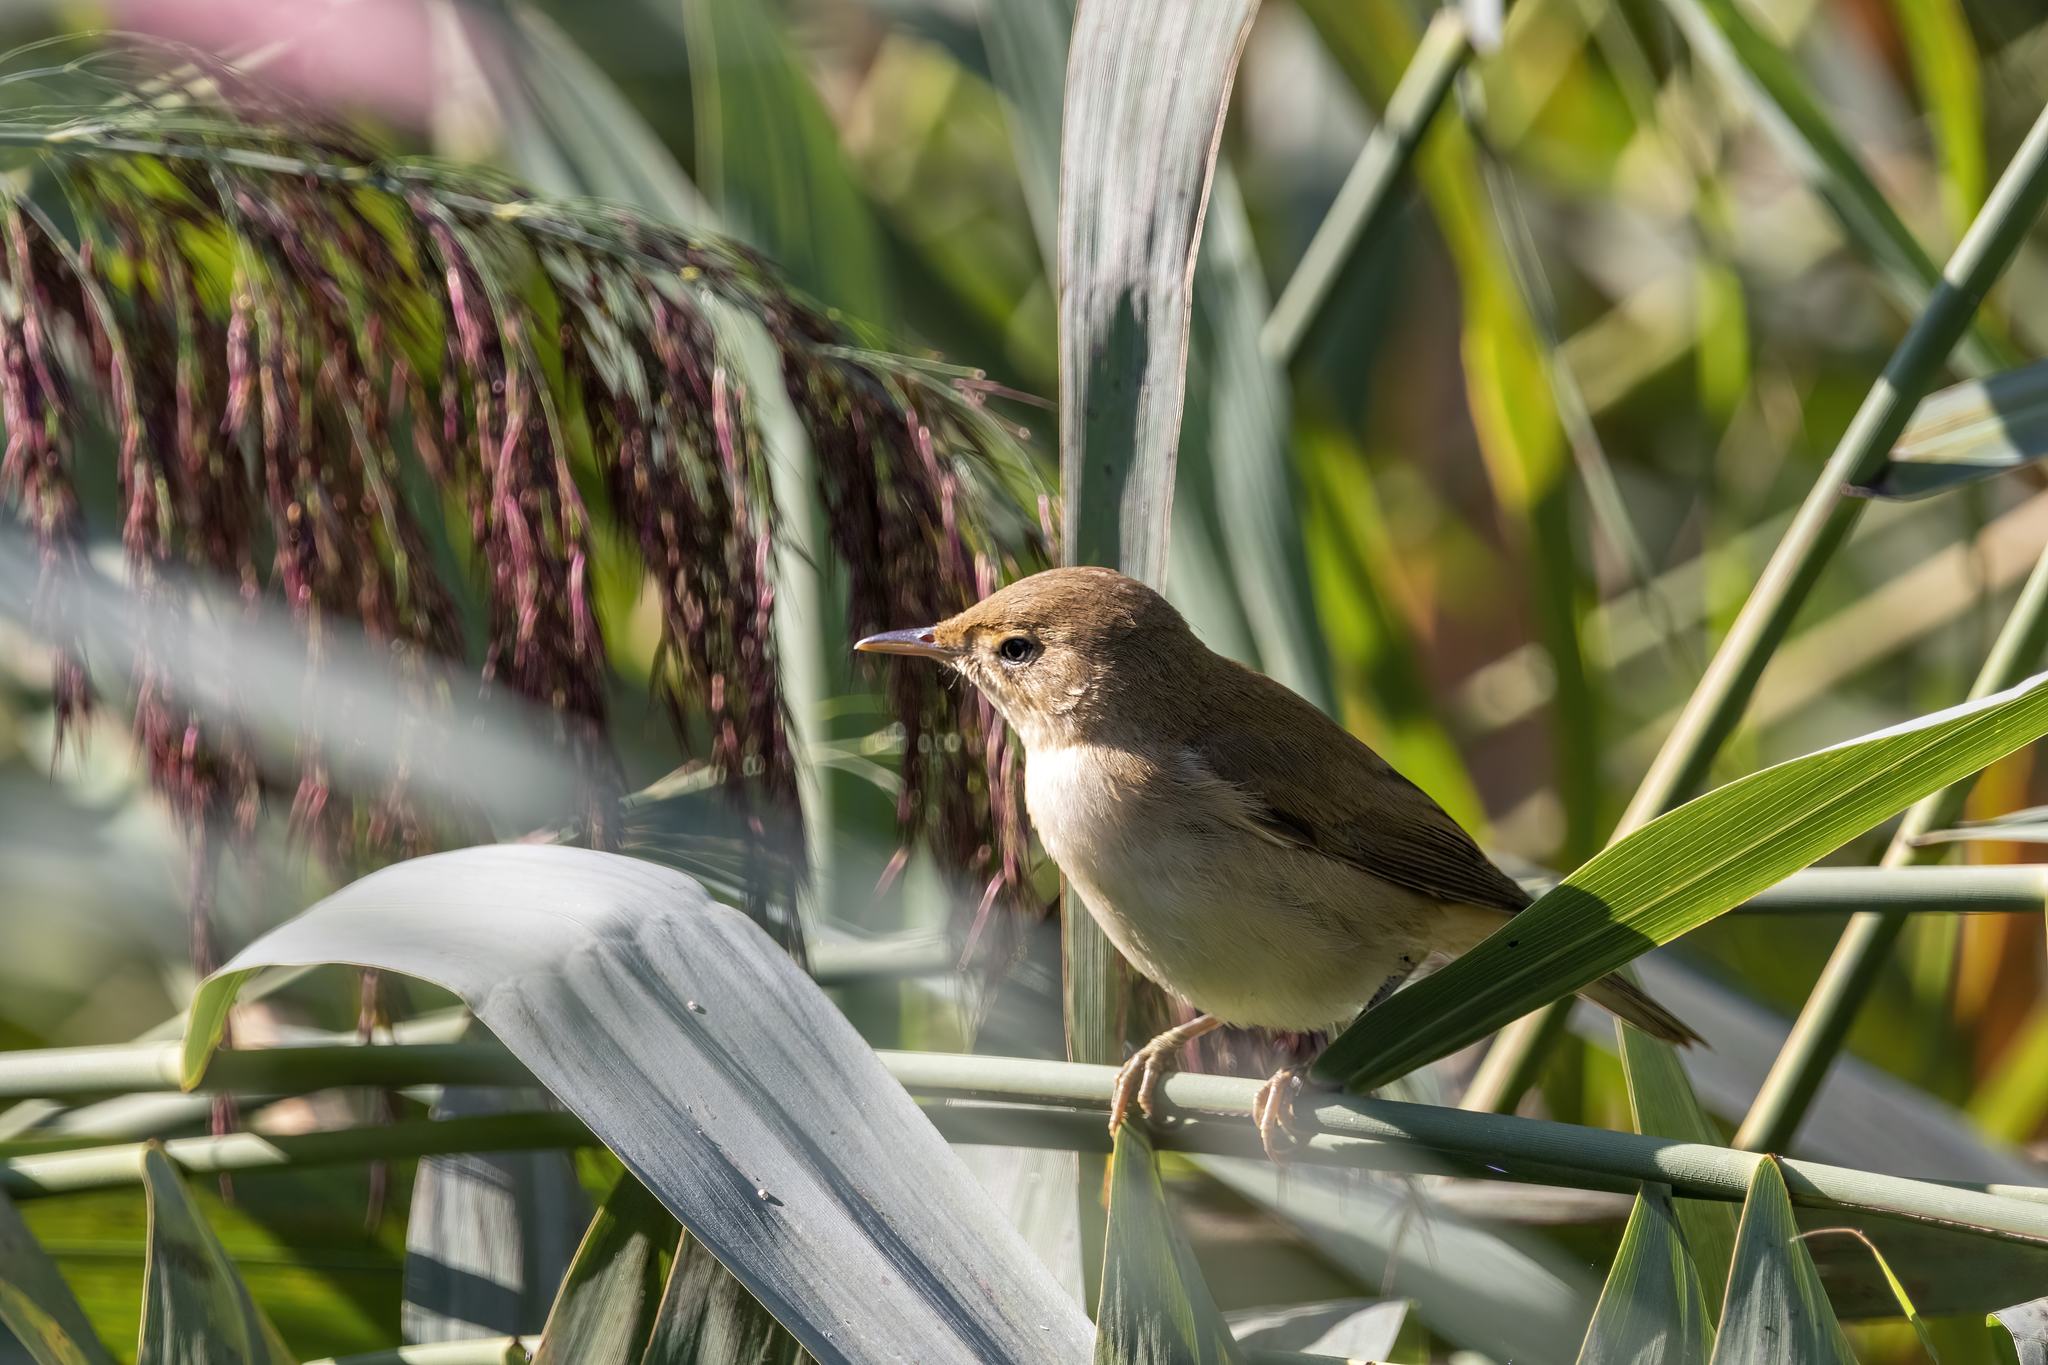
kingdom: Animalia
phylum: Chordata
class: Aves
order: Passeriformes
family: Acrocephalidae
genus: Acrocephalus
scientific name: Acrocephalus scirpaceus
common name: Eurasian reed warbler
